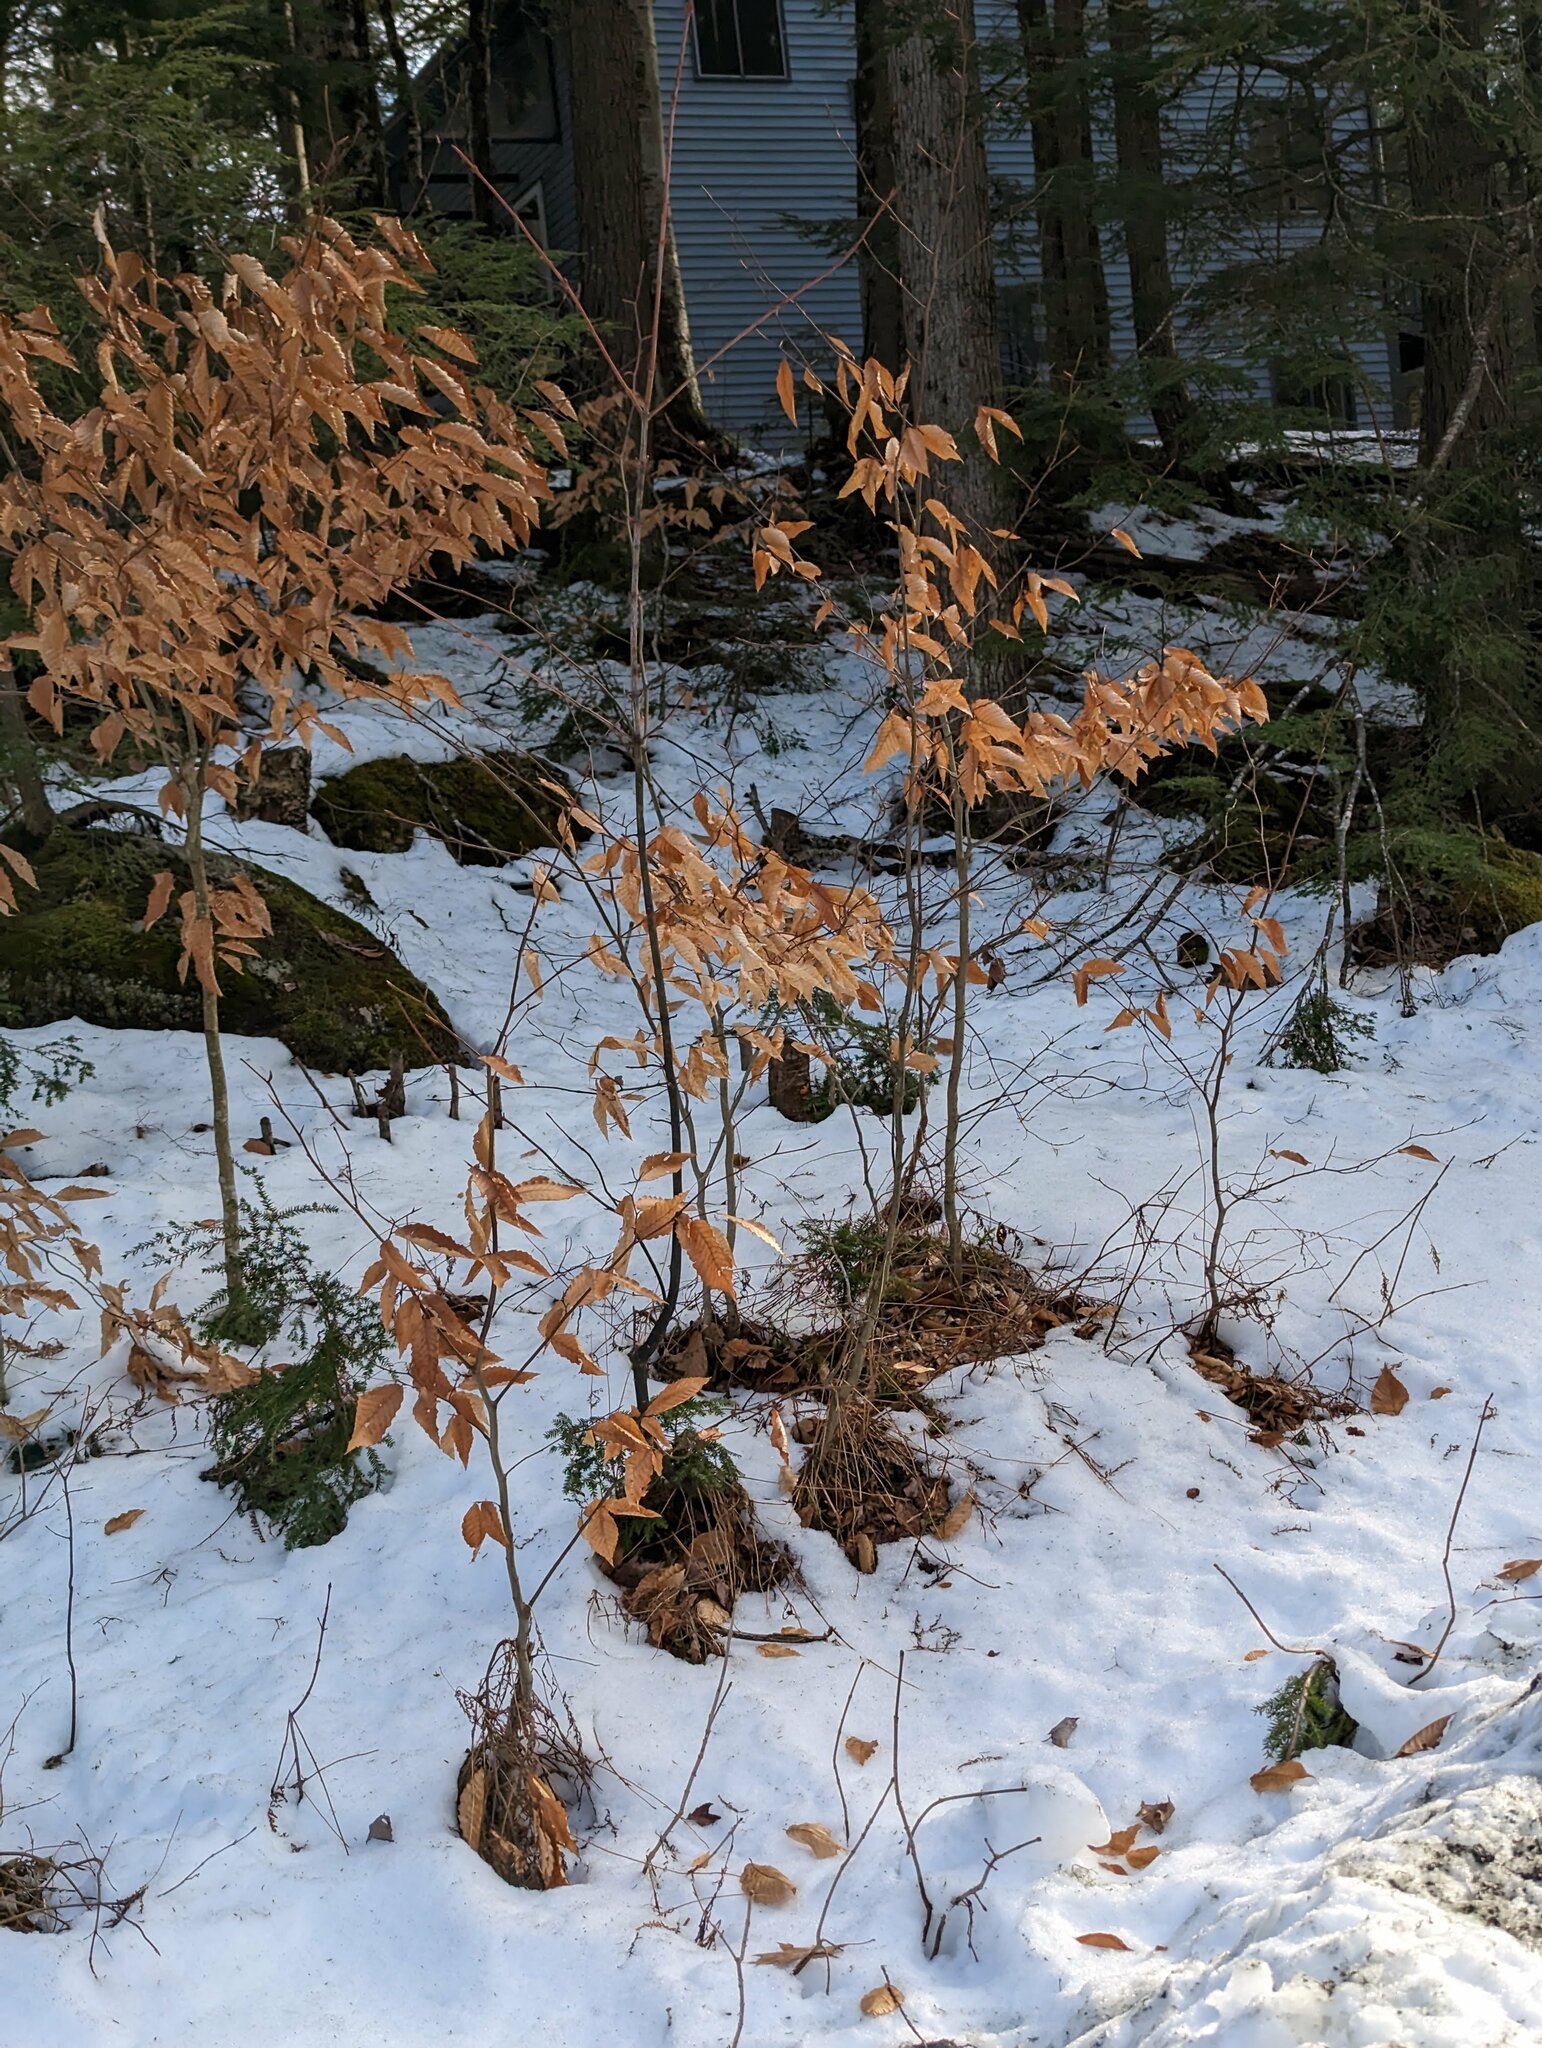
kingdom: Plantae
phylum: Tracheophyta
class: Magnoliopsida
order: Fagales
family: Fagaceae
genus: Fagus
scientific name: Fagus grandifolia
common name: American beech
